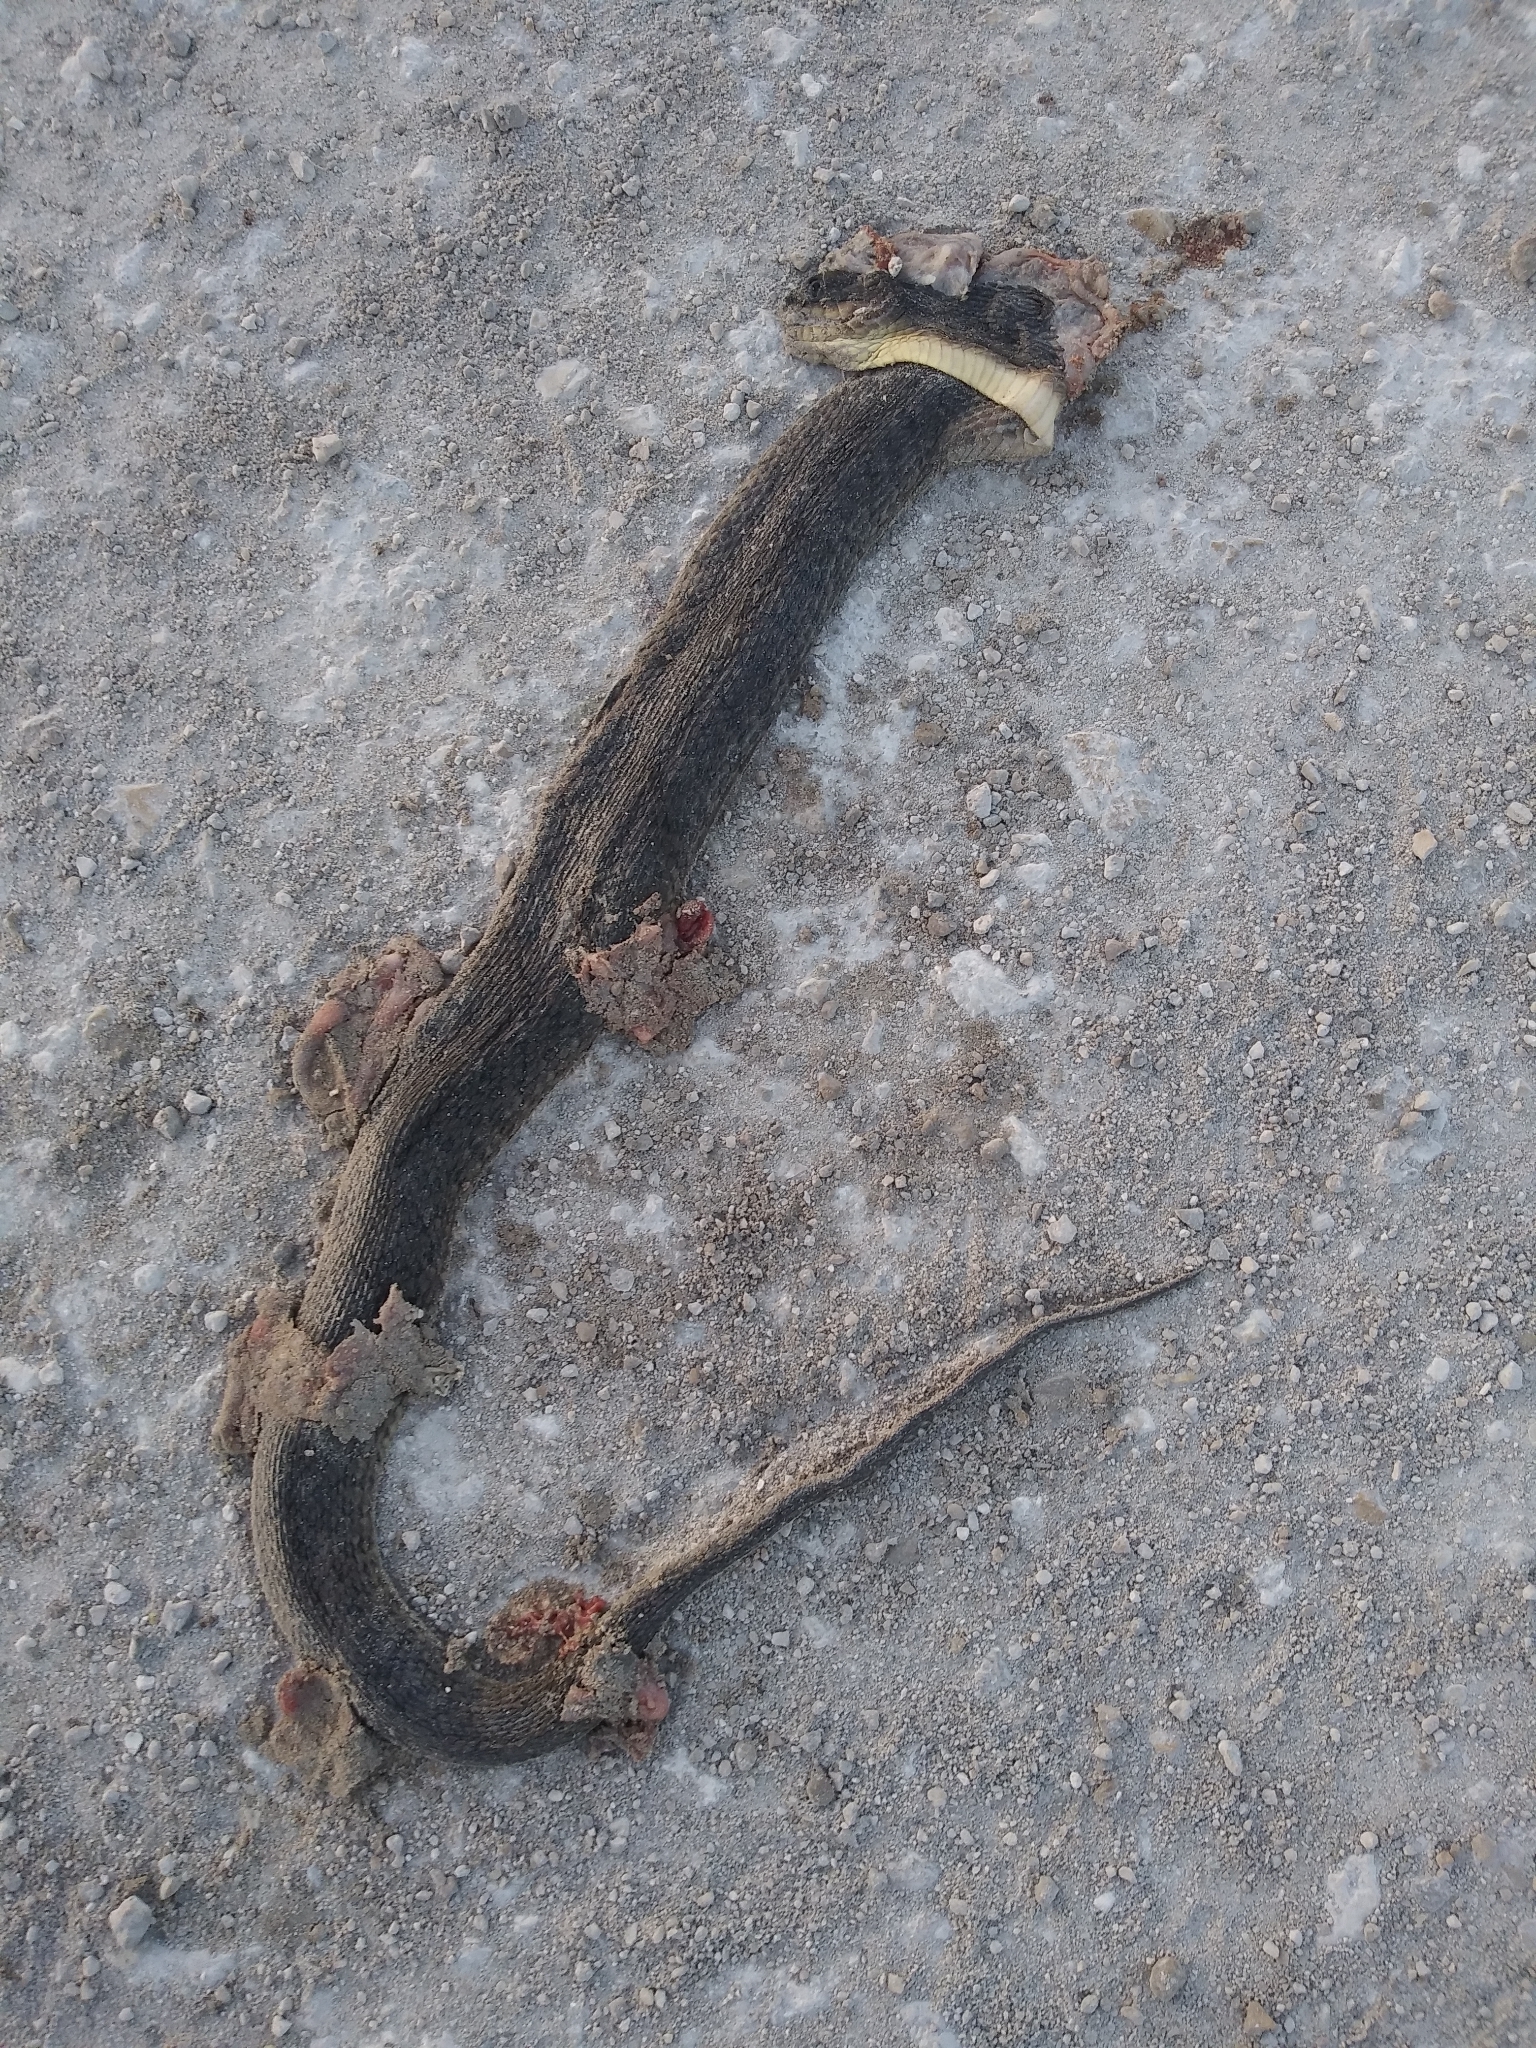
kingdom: Animalia
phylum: Chordata
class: Squamata
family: Colubridae
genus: Nerodia
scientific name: Nerodia floridana
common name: Florida green watersnake
